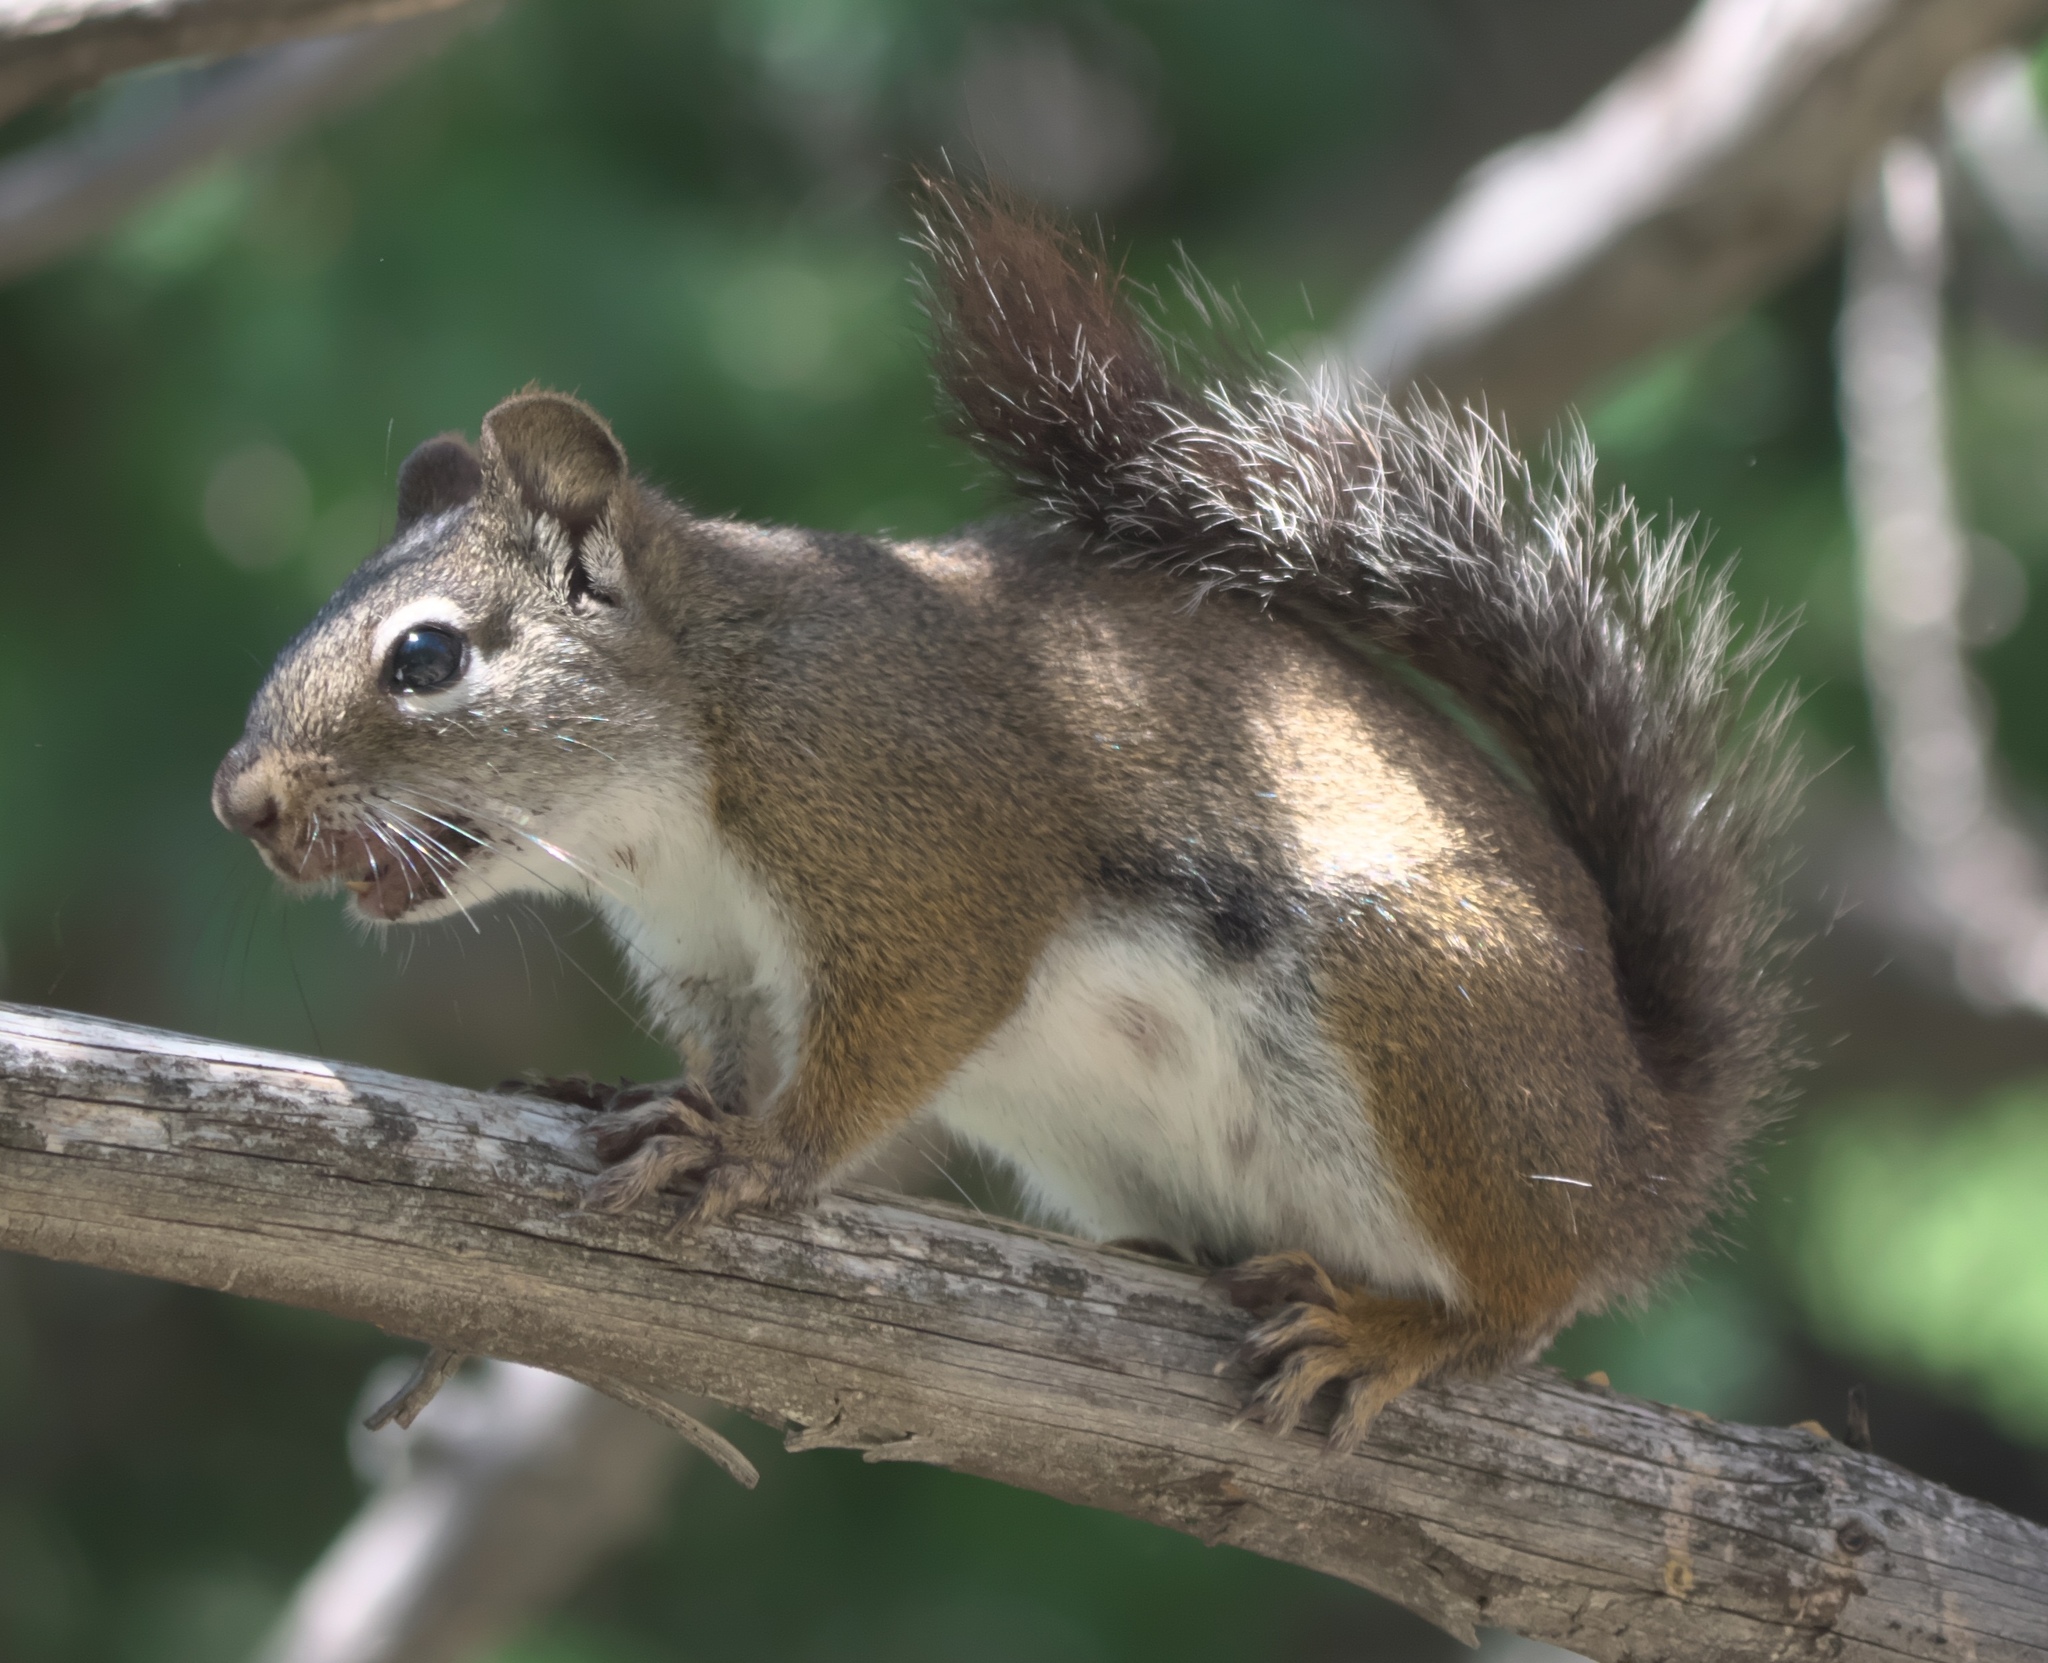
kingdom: Animalia
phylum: Chordata
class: Mammalia
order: Rodentia
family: Sciuridae
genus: Tamiasciurus
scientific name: Tamiasciurus hudsonicus
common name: Red squirrel
